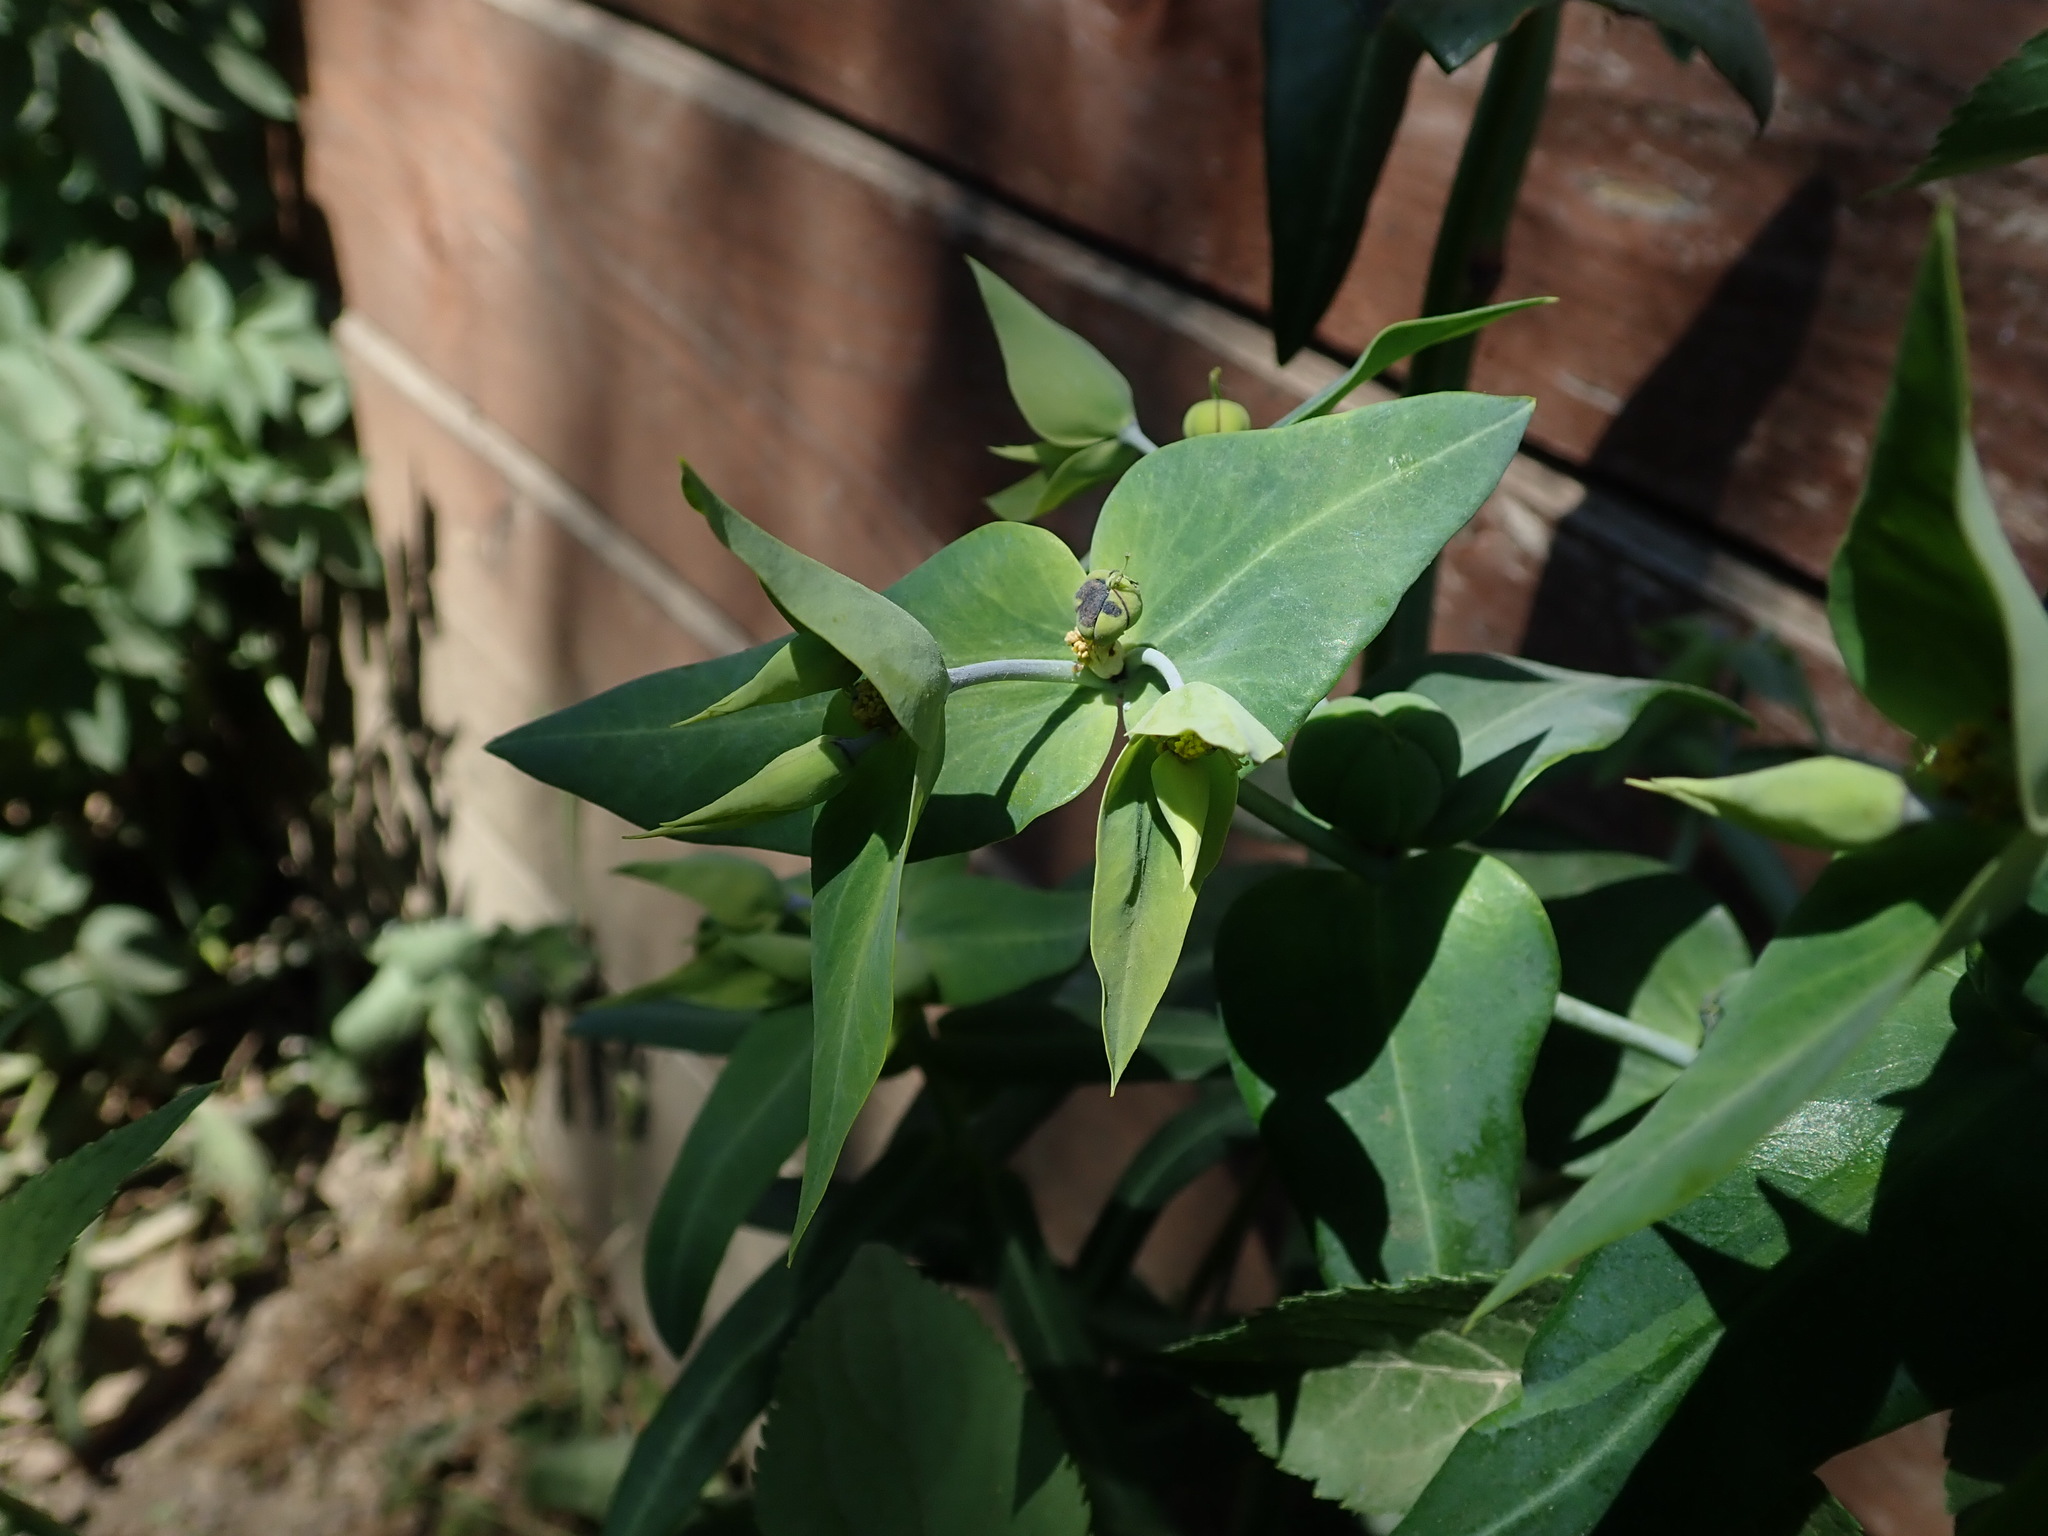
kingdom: Plantae
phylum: Tracheophyta
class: Magnoliopsida
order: Malpighiales
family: Euphorbiaceae
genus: Euphorbia
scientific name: Euphorbia lathyris
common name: Caper spurge
